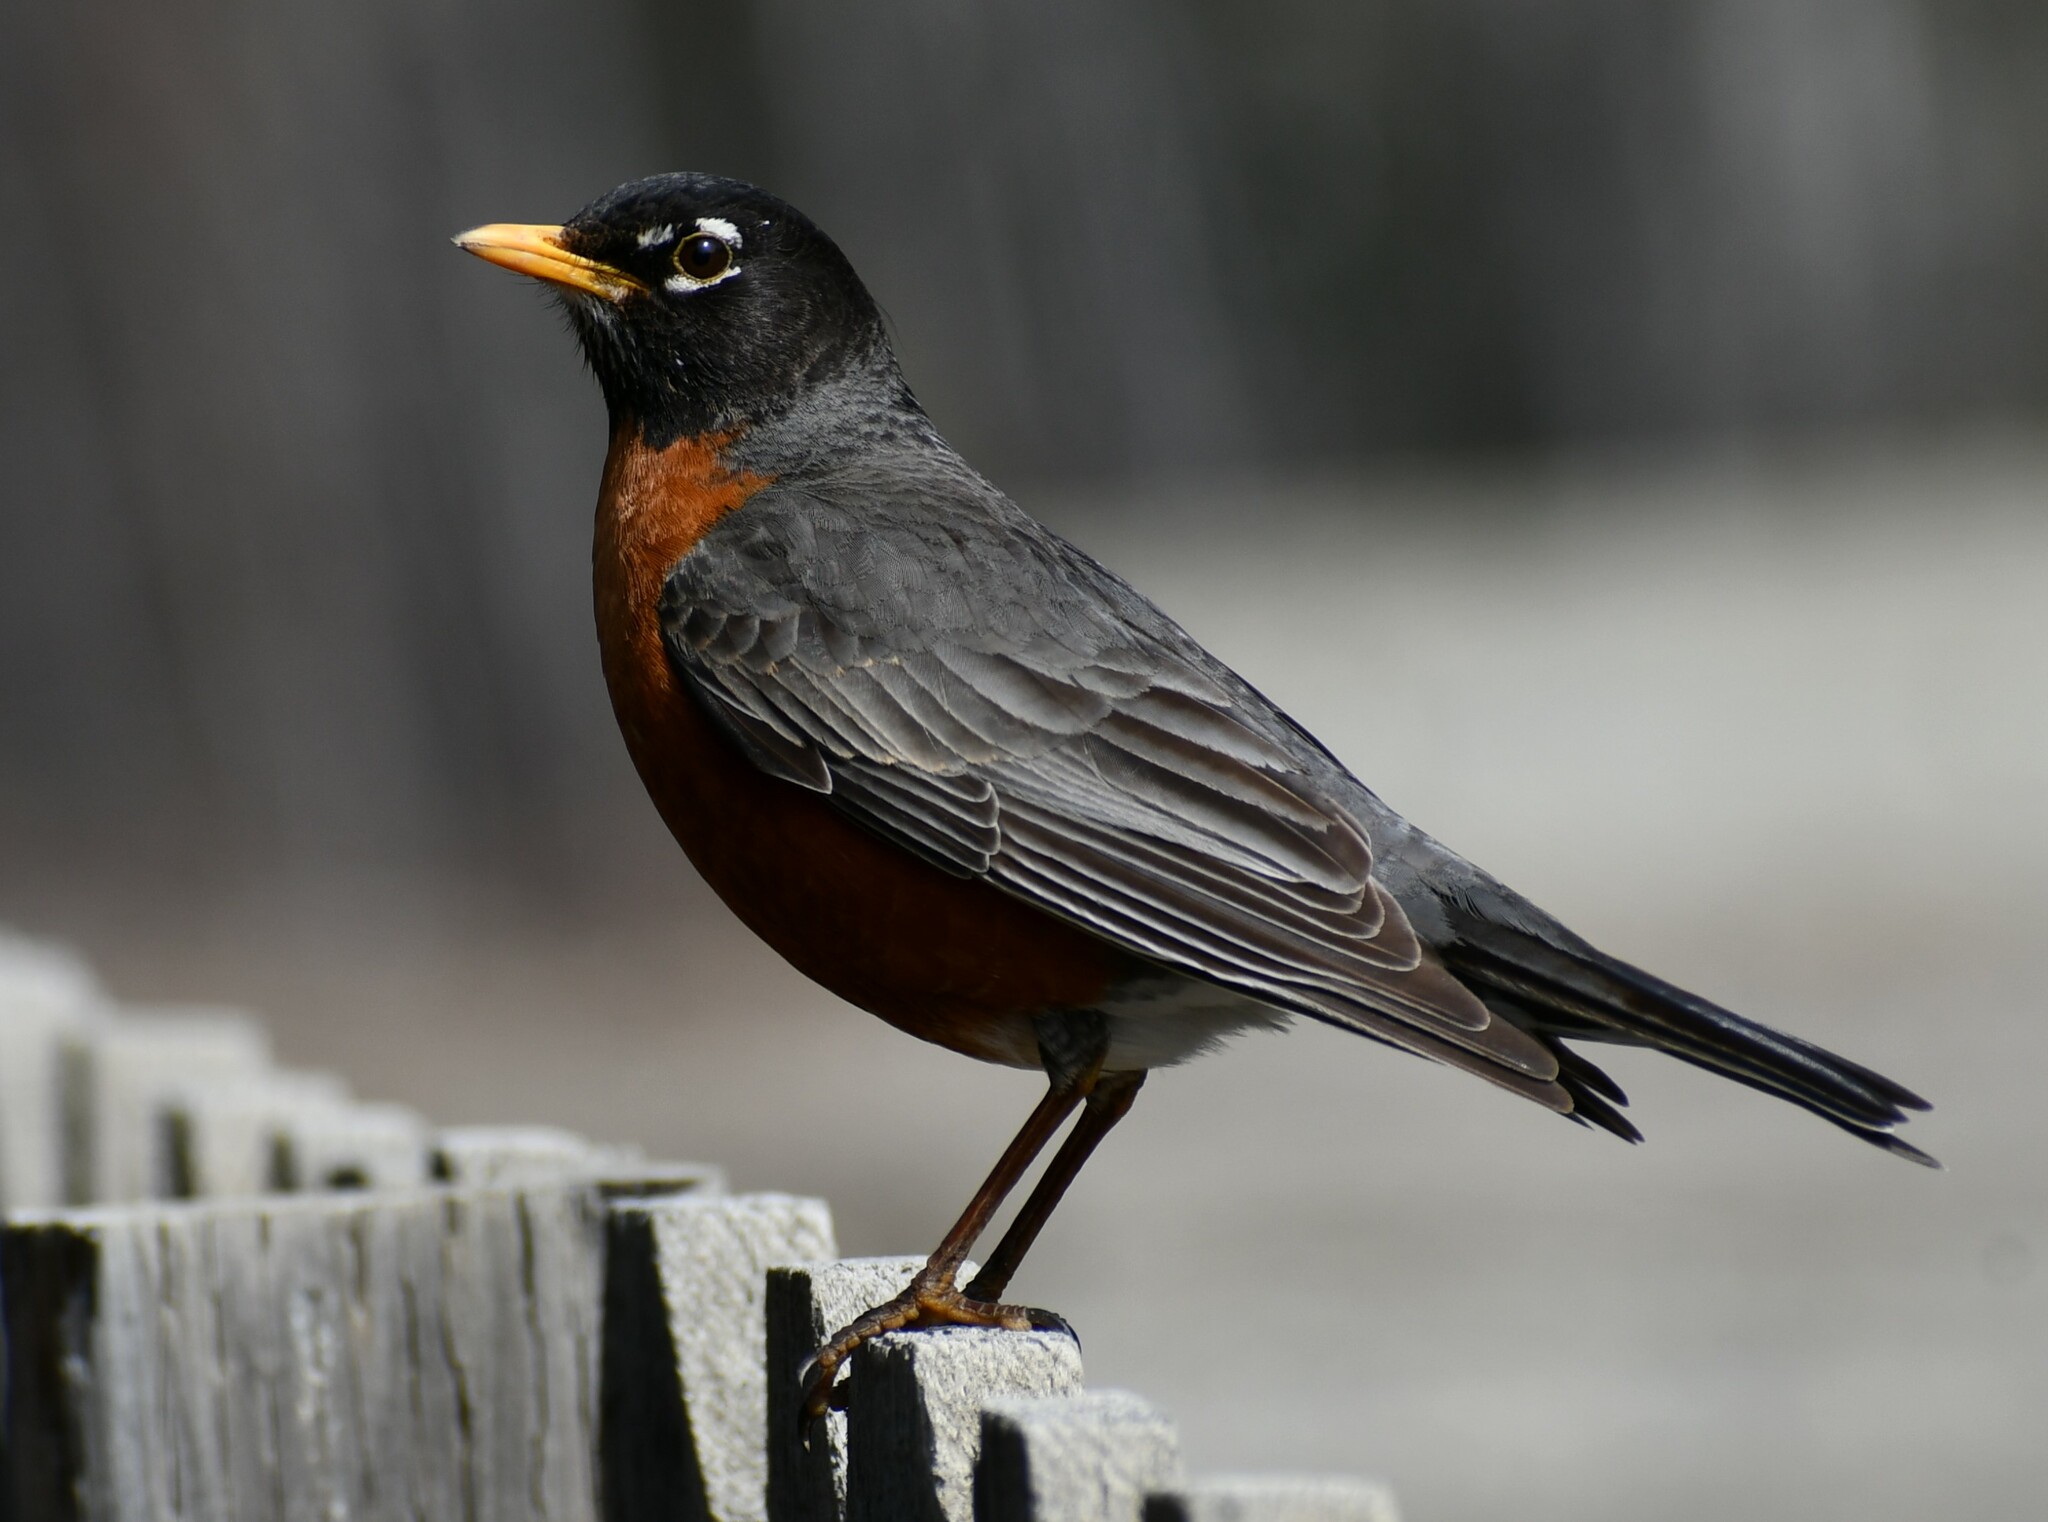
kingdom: Animalia
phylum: Chordata
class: Aves
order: Passeriformes
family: Turdidae
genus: Turdus
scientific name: Turdus migratorius
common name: American robin
